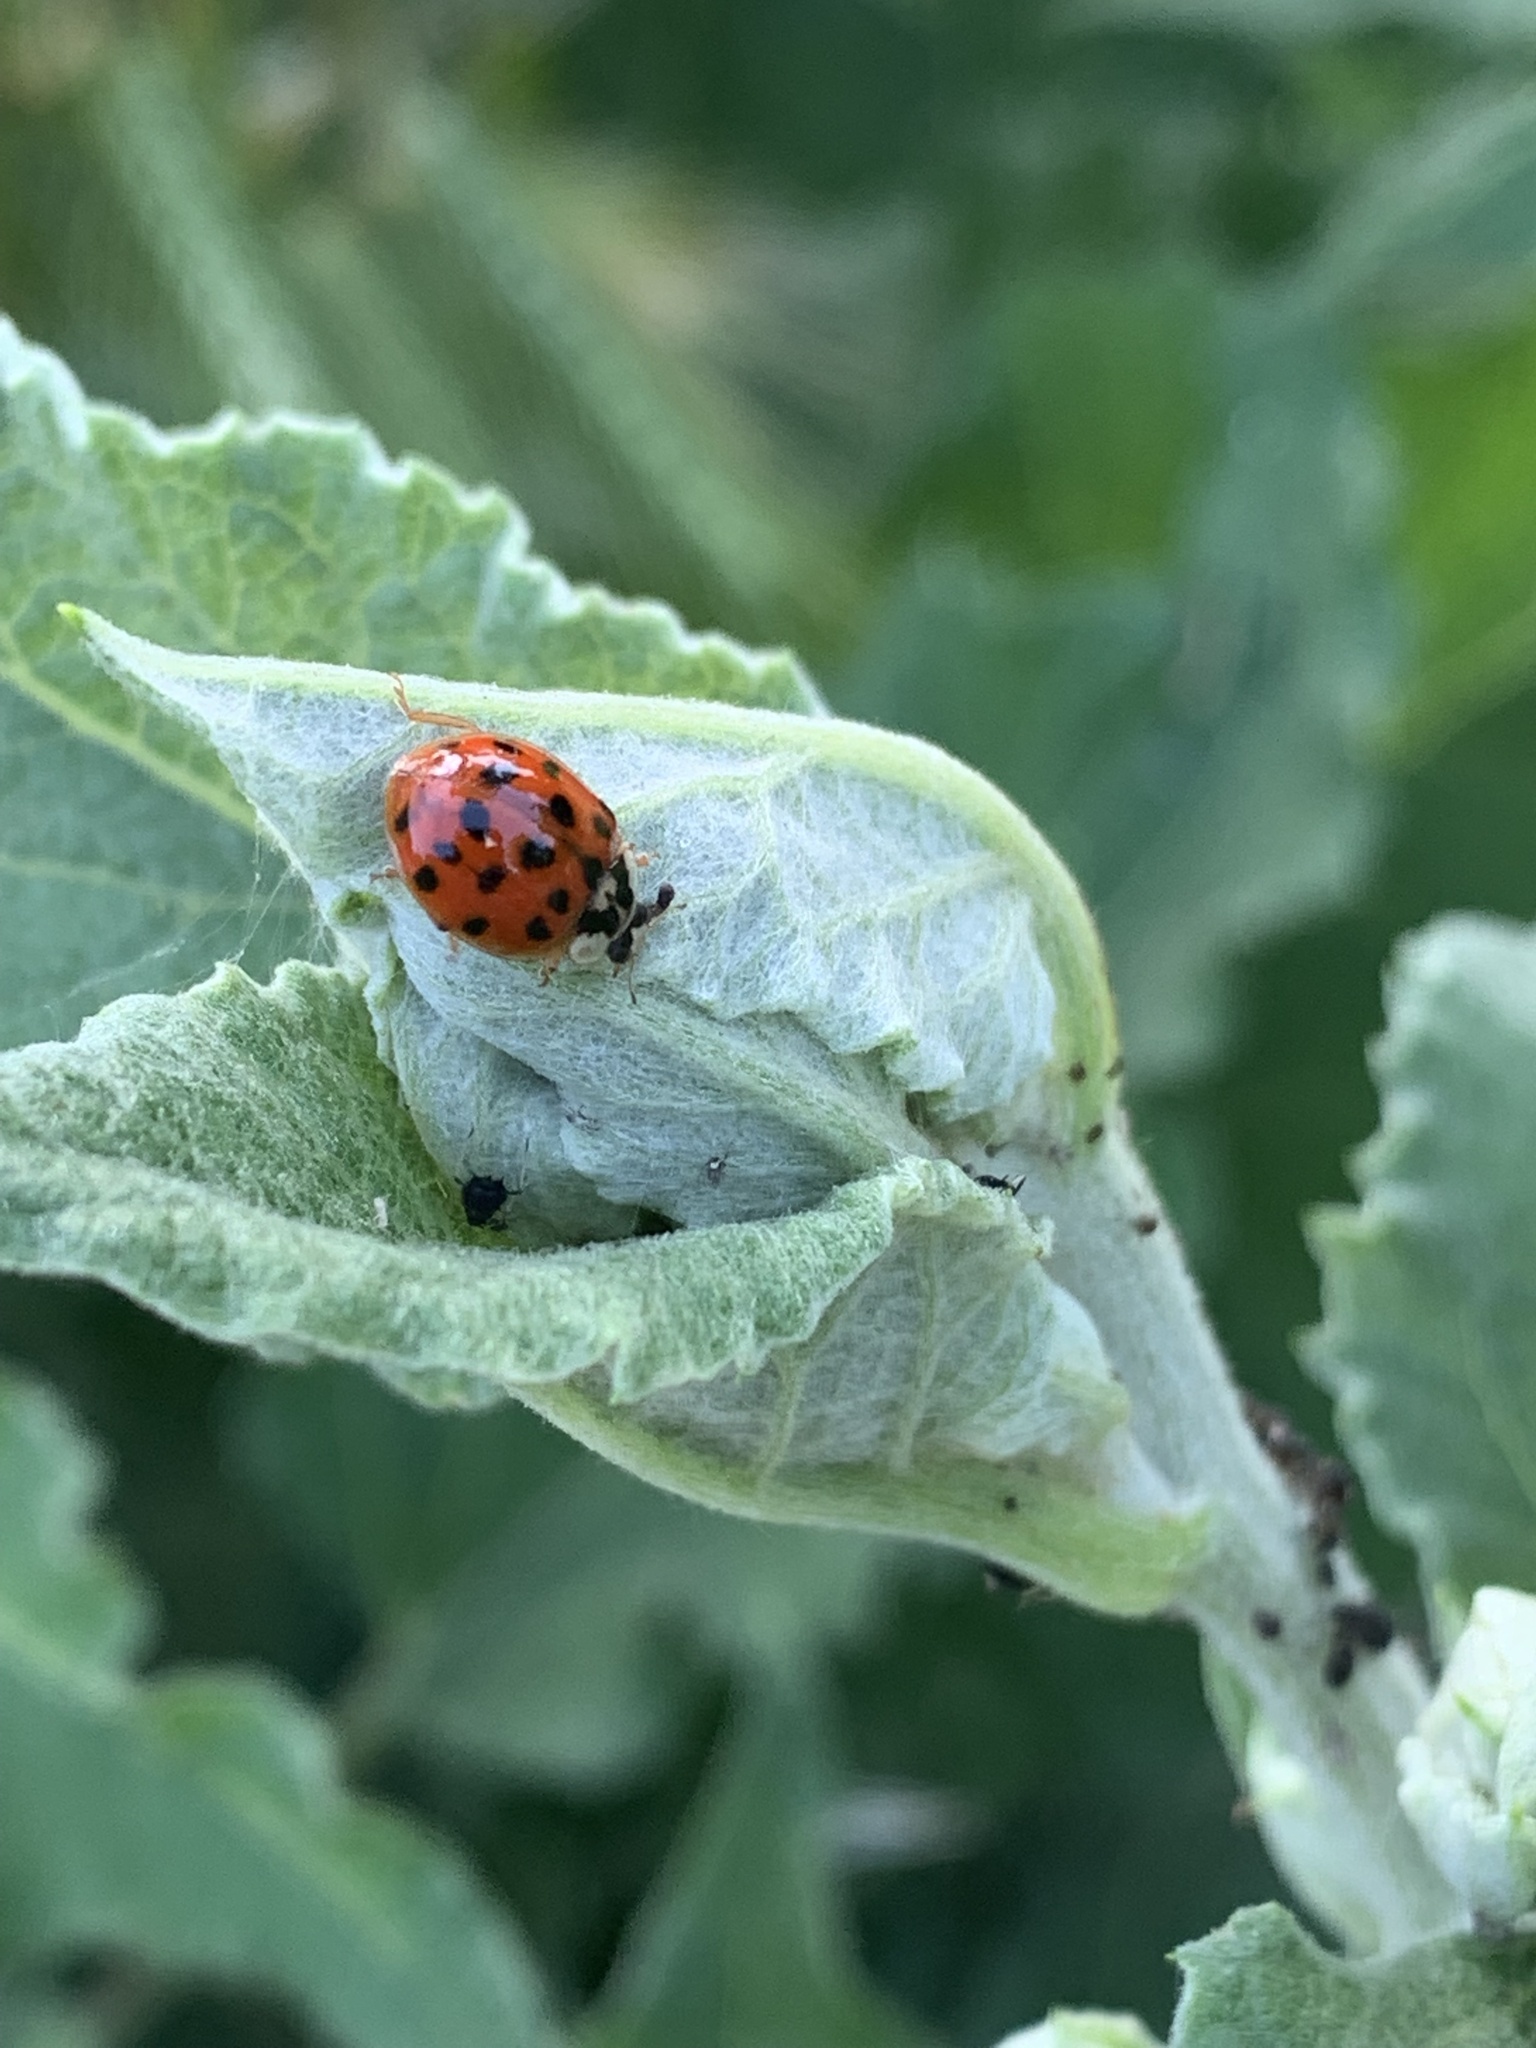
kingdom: Animalia
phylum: Arthropoda
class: Insecta
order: Coleoptera
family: Coccinellidae
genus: Harmonia
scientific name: Harmonia axyridis
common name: Harlequin ladybird
